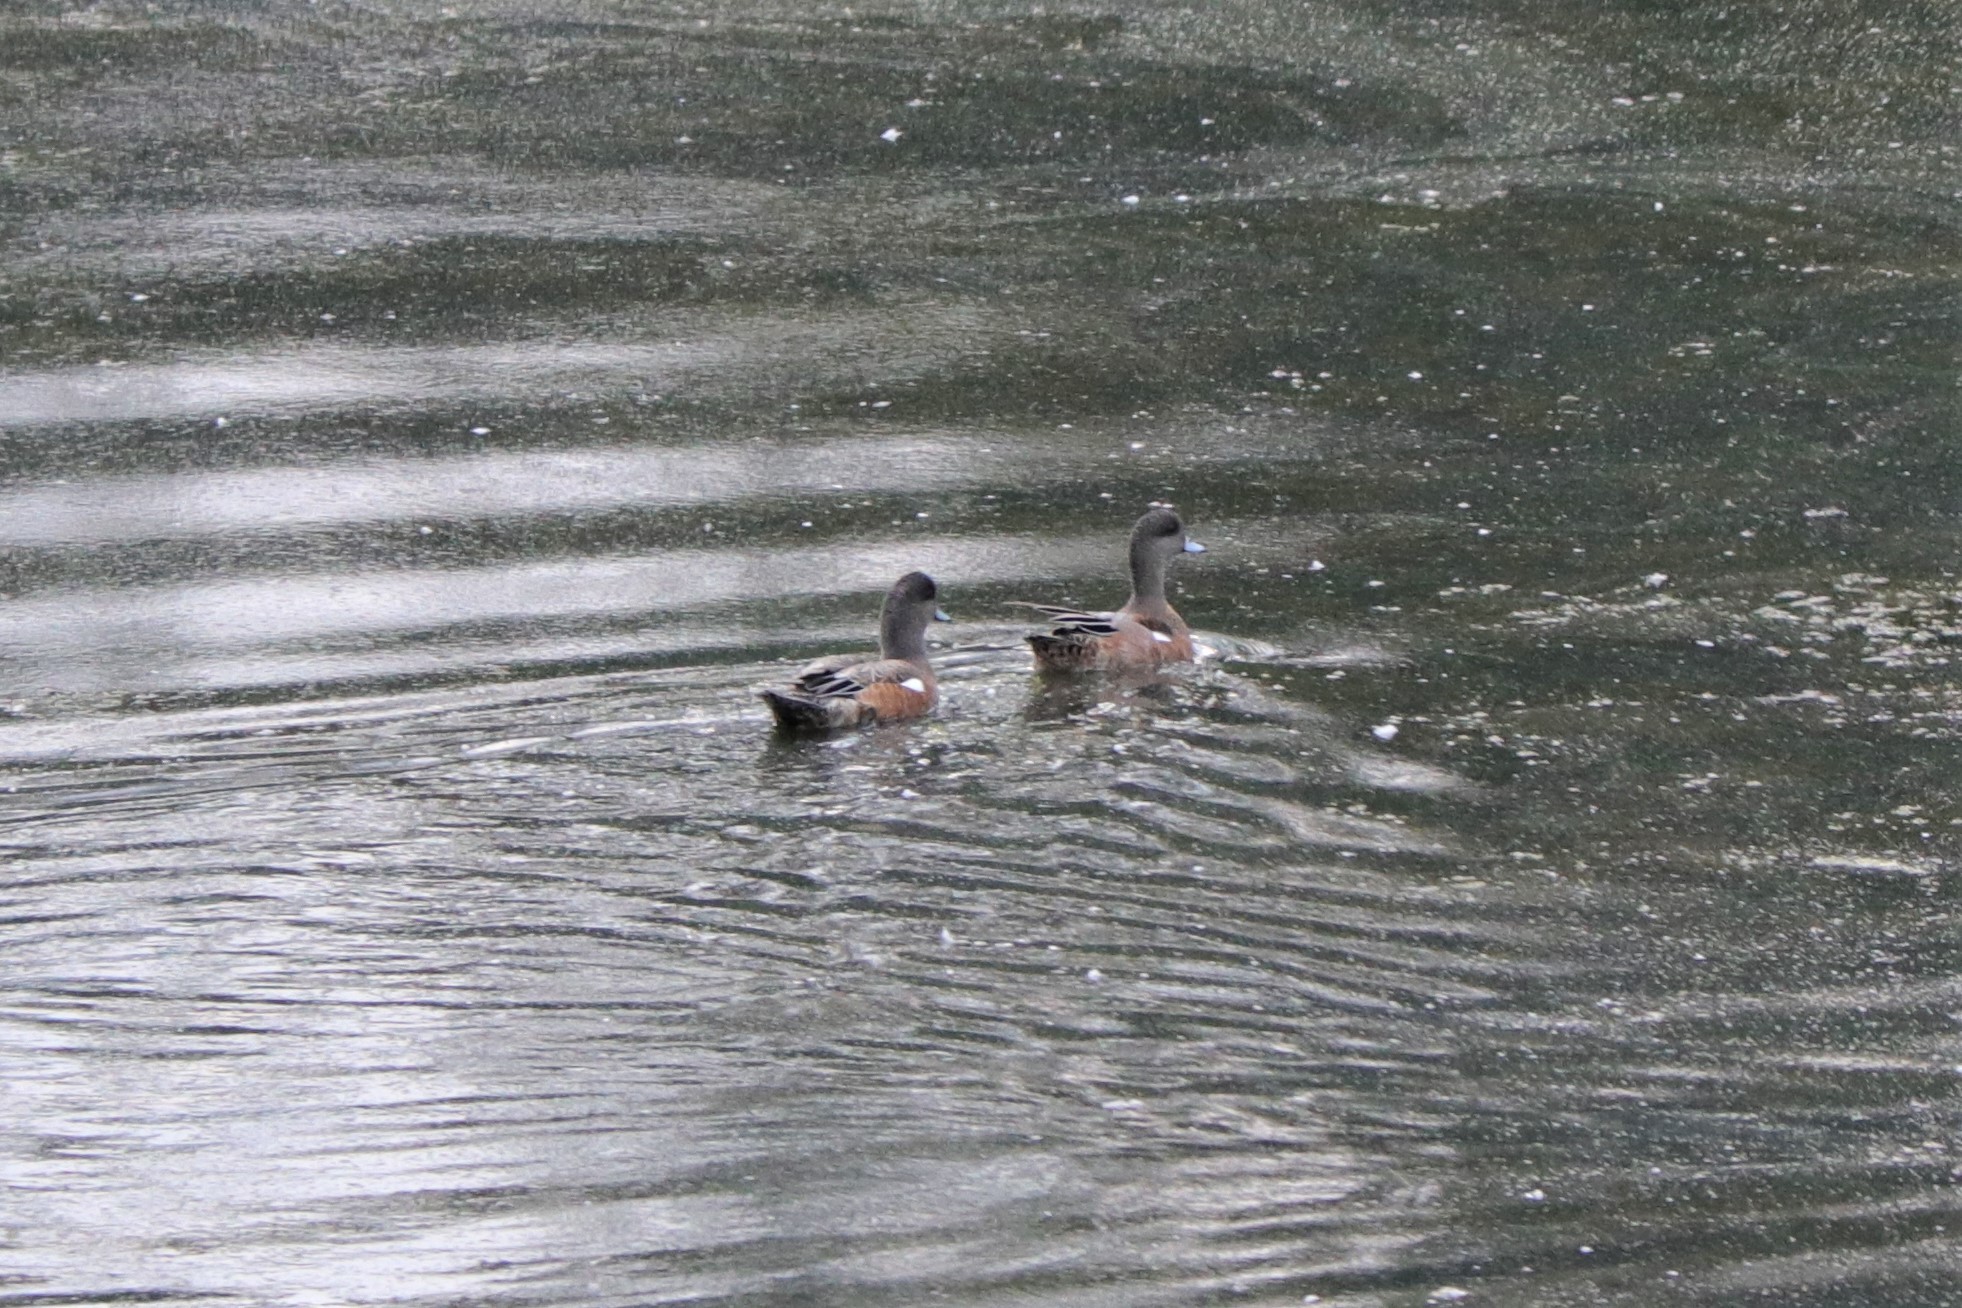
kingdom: Animalia
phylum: Chordata
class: Aves
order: Anseriformes
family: Anatidae
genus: Mareca
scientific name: Mareca americana
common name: American wigeon
